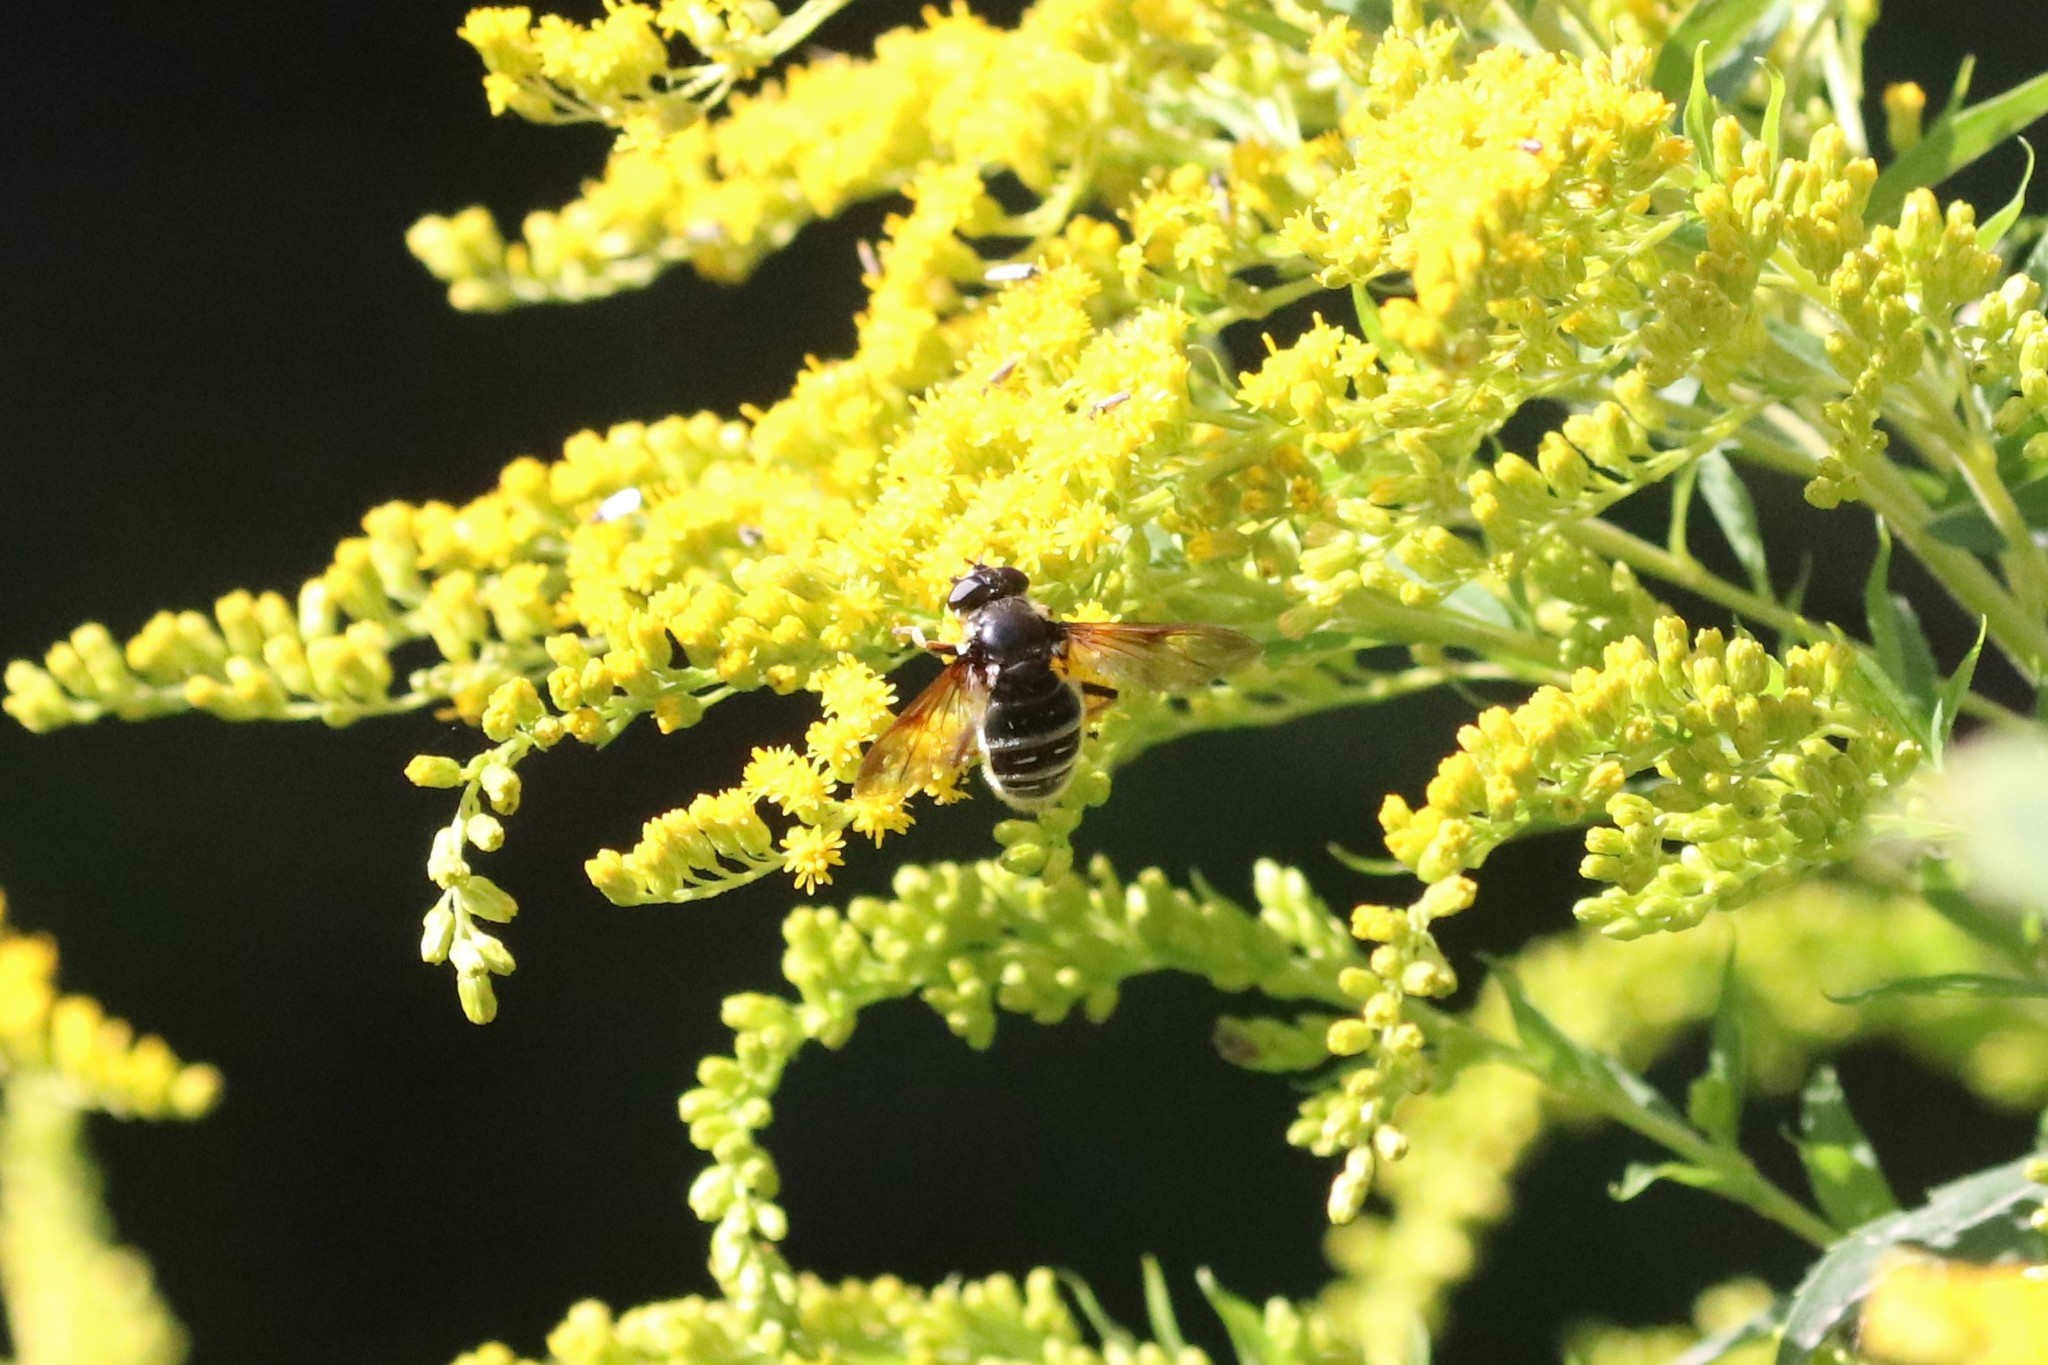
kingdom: Animalia
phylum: Arthropoda
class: Insecta
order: Diptera
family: Syrphidae
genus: Sericomyia
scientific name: Sericomyia militaris
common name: Narrow-banded pond fly
